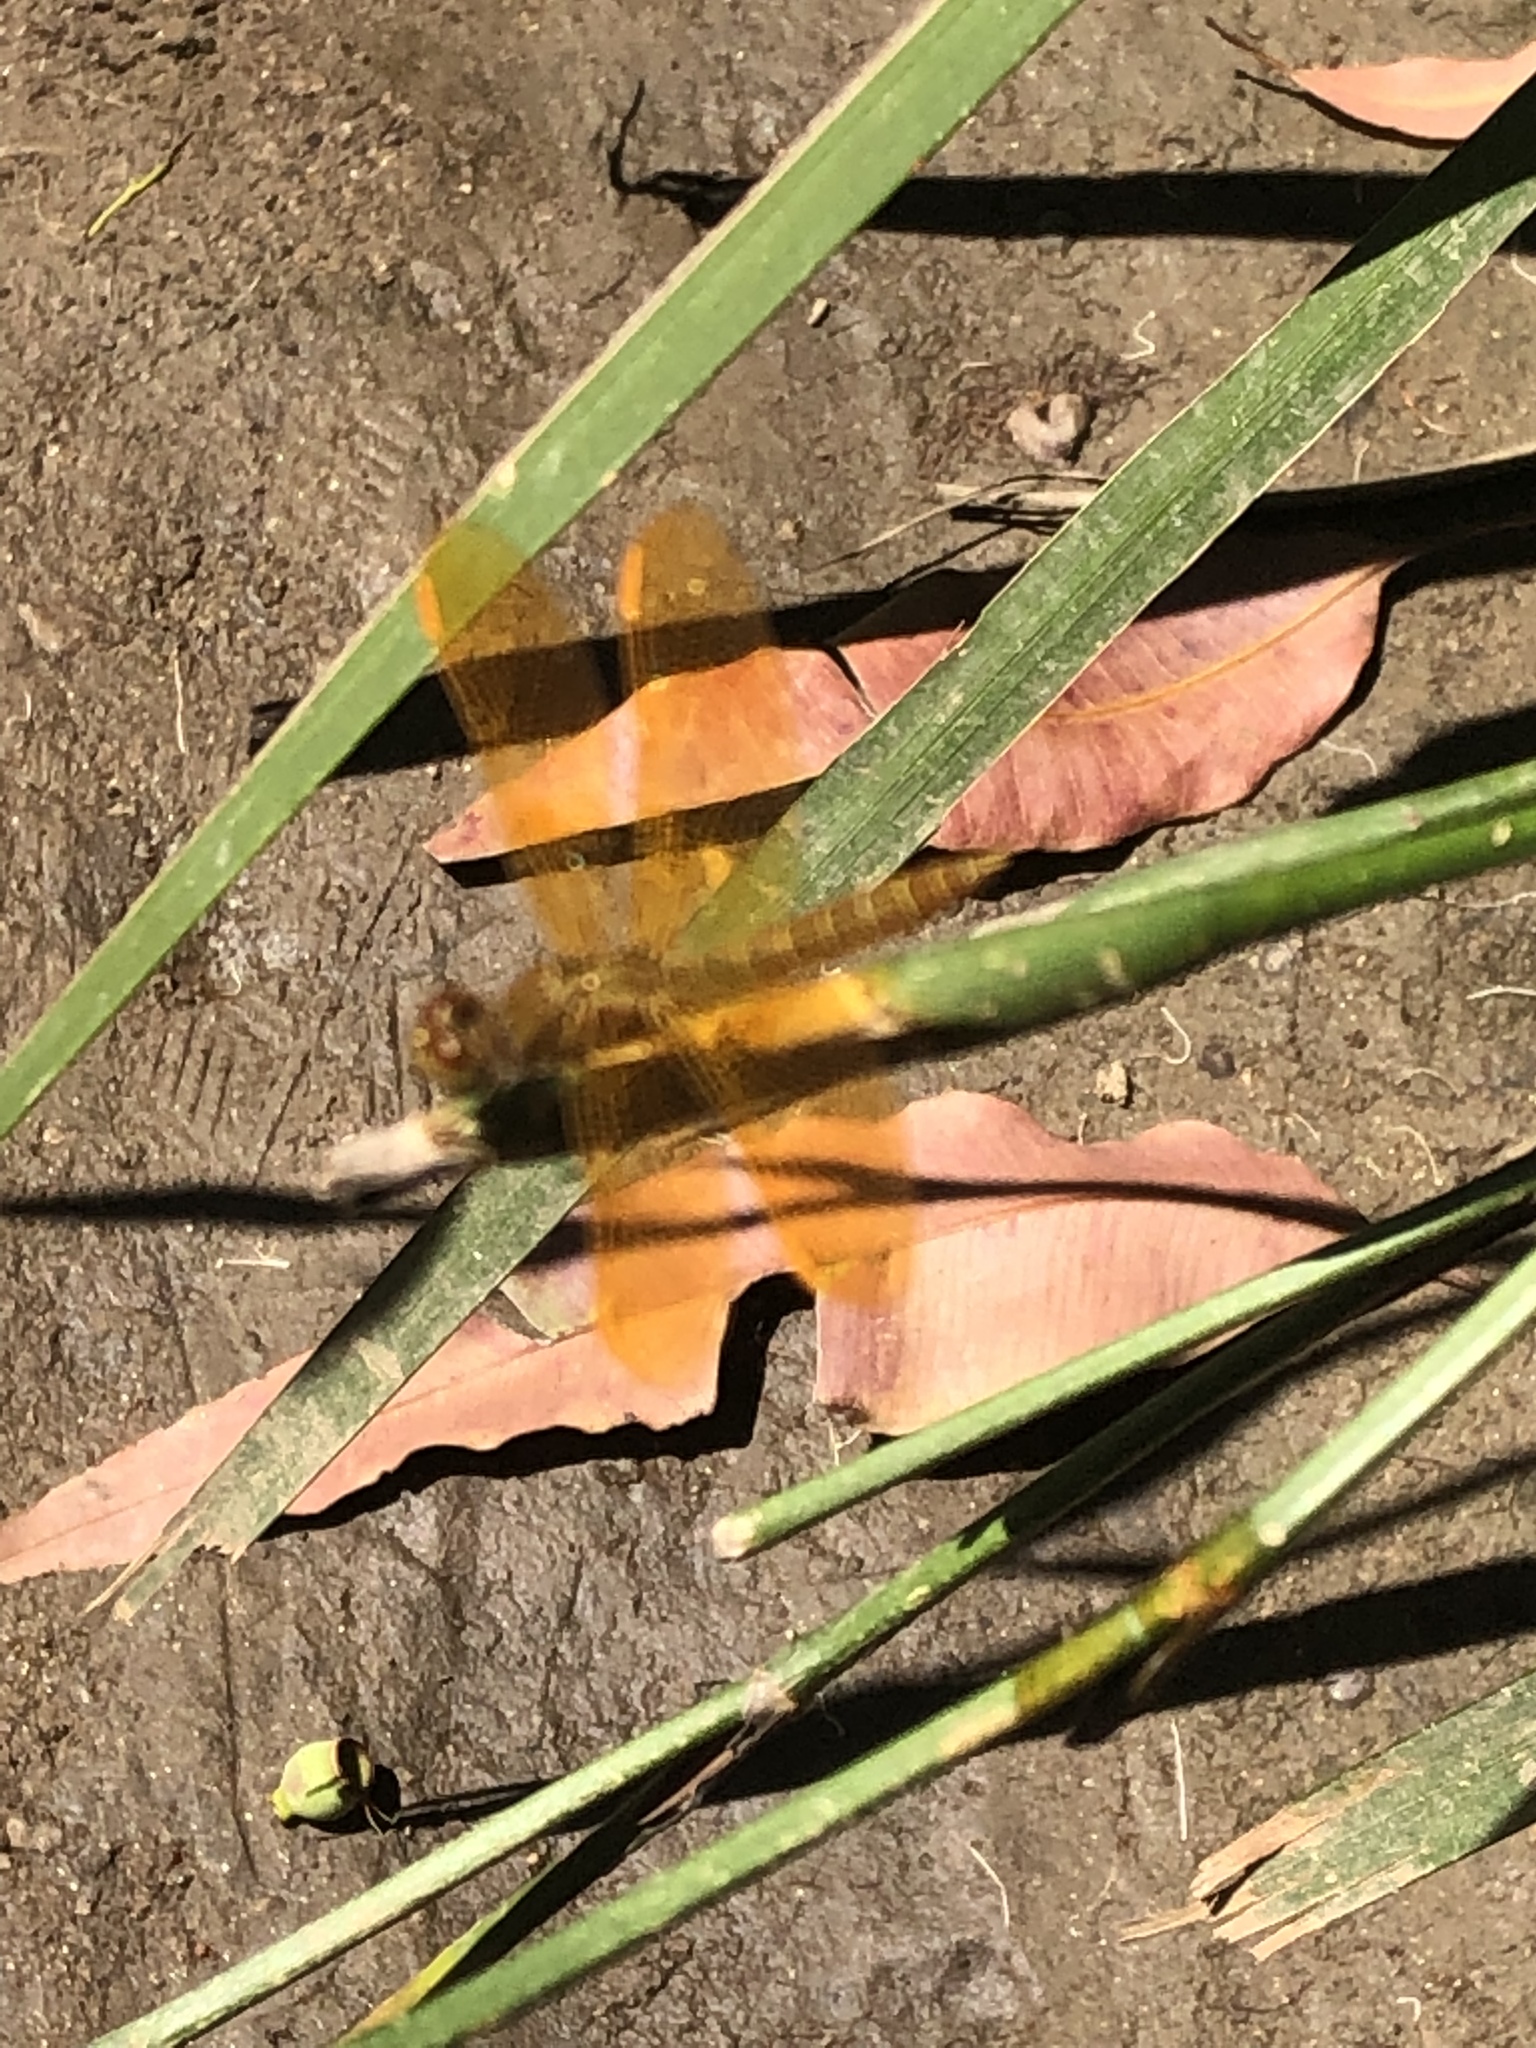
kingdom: Animalia
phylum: Arthropoda
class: Insecta
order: Odonata
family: Libellulidae
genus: Perithemis
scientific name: Perithemis intensa
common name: Mexican amberwing
